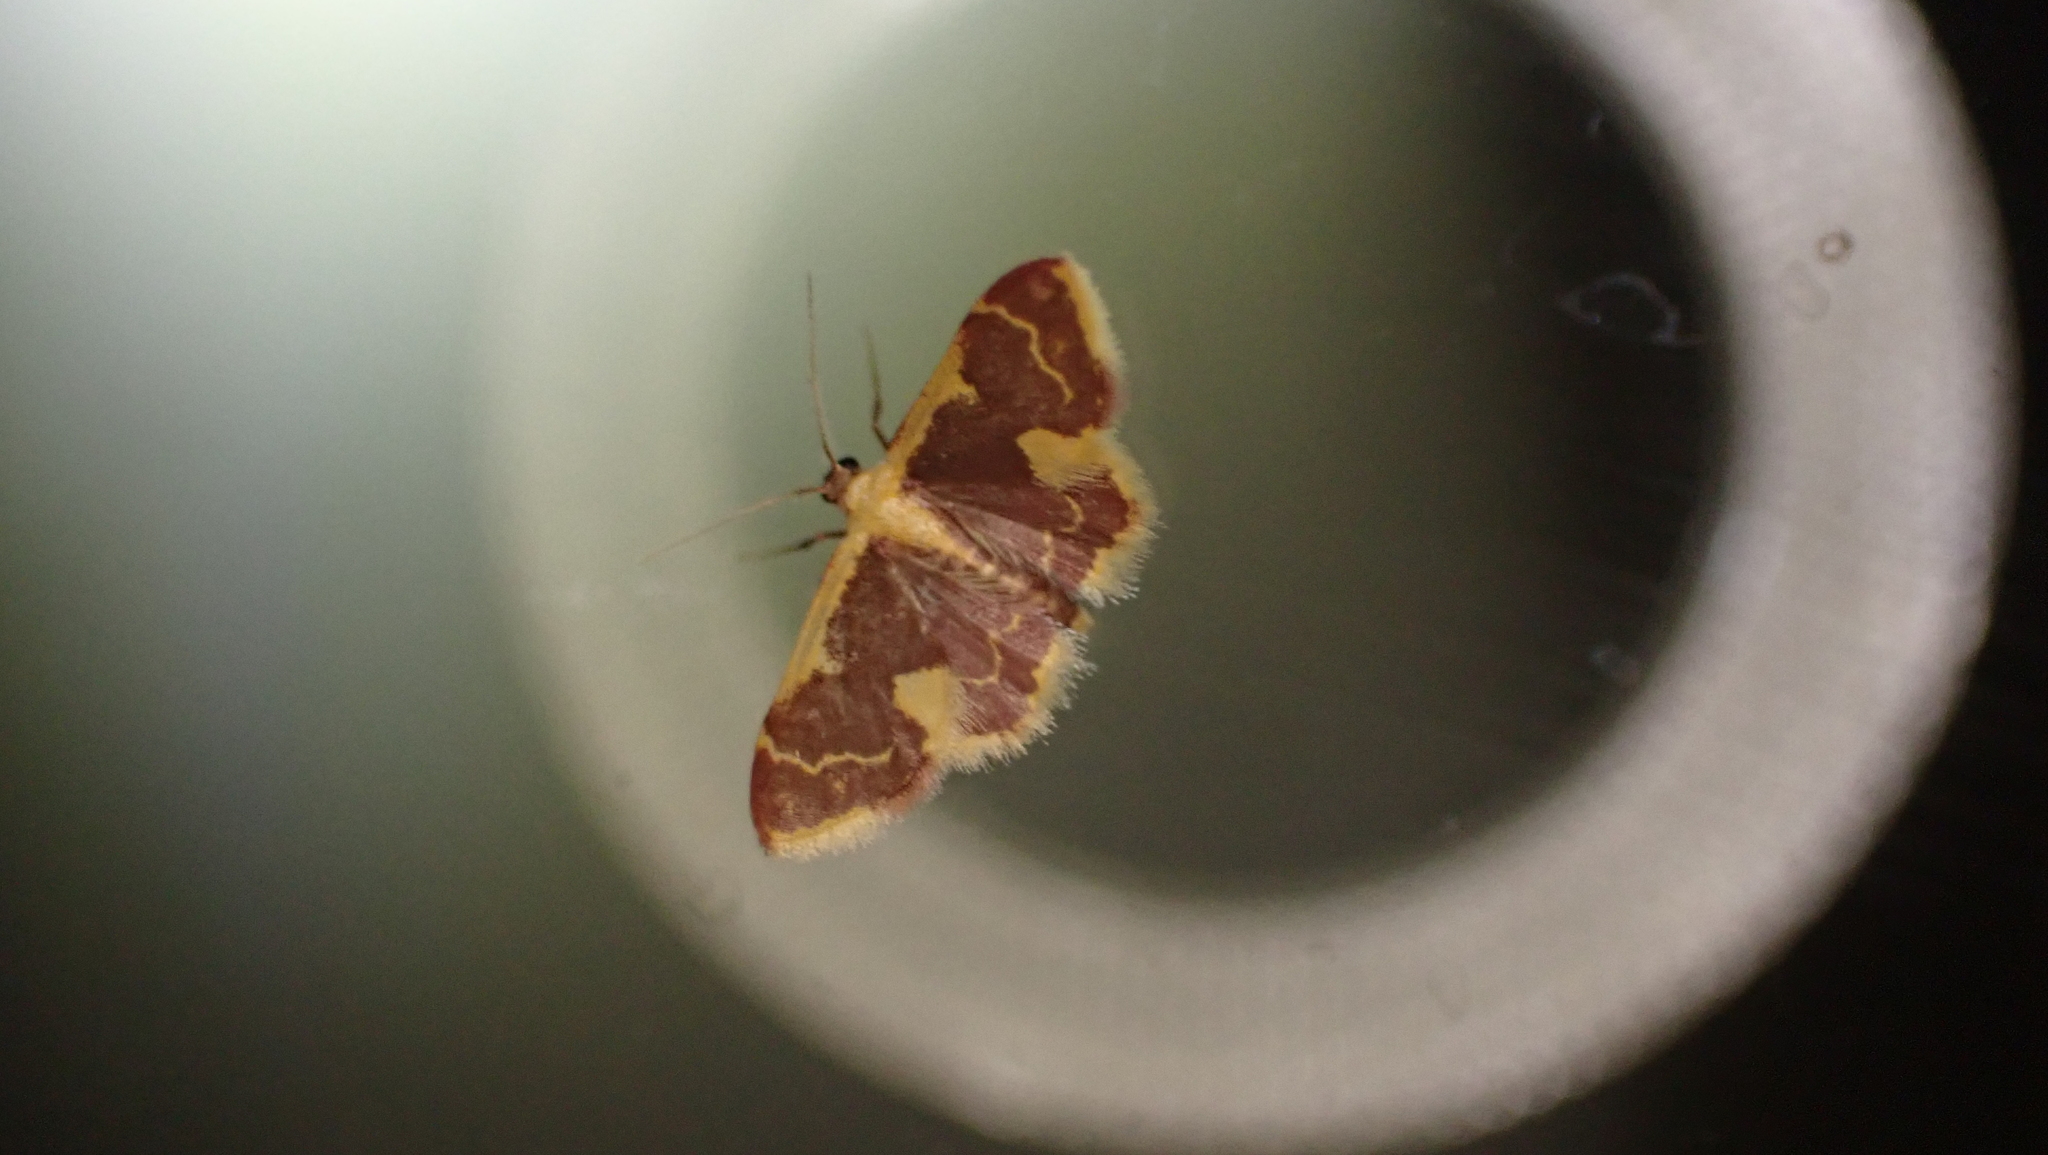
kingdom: Animalia
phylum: Arthropoda
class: Insecta
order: Lepidoptera
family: Geometridae
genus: Idaea
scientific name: Idaea gemma
